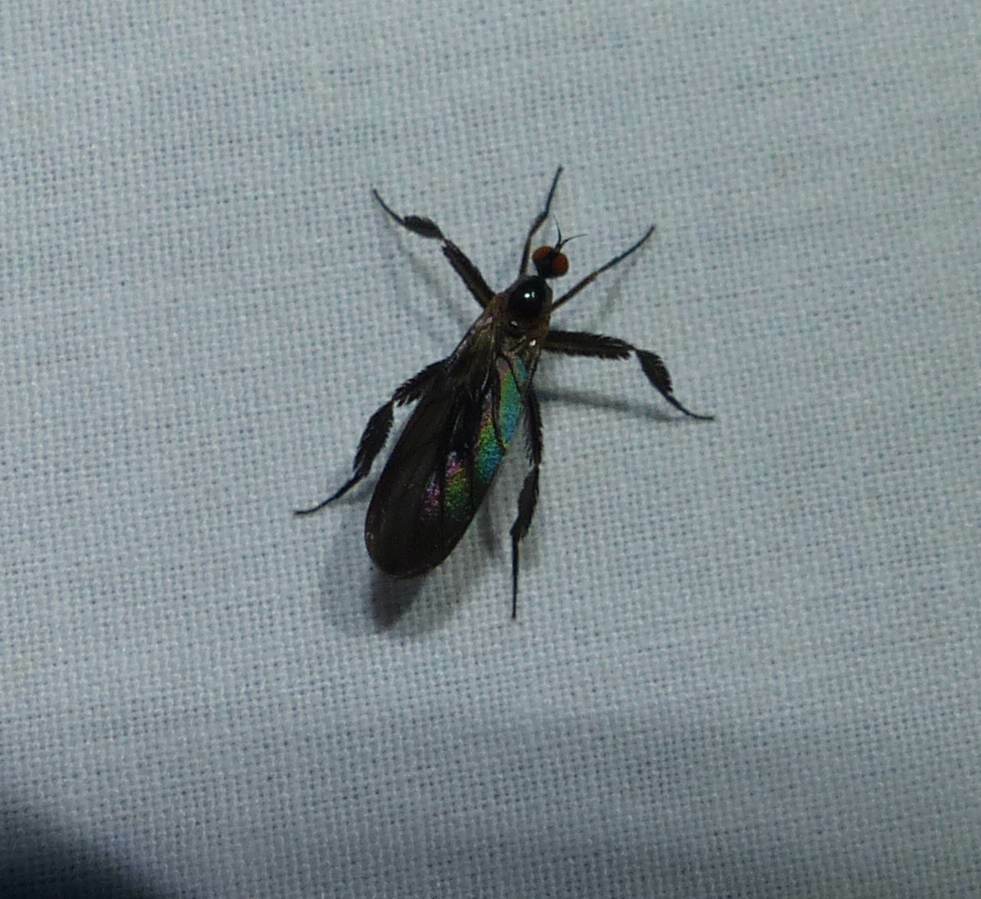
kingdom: Animalia
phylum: Arthropoda
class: Insecta
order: Diptera
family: Empididae
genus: Rhamphomyia
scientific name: Rhamphomyia longicauda
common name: Long-tailed dance fly
